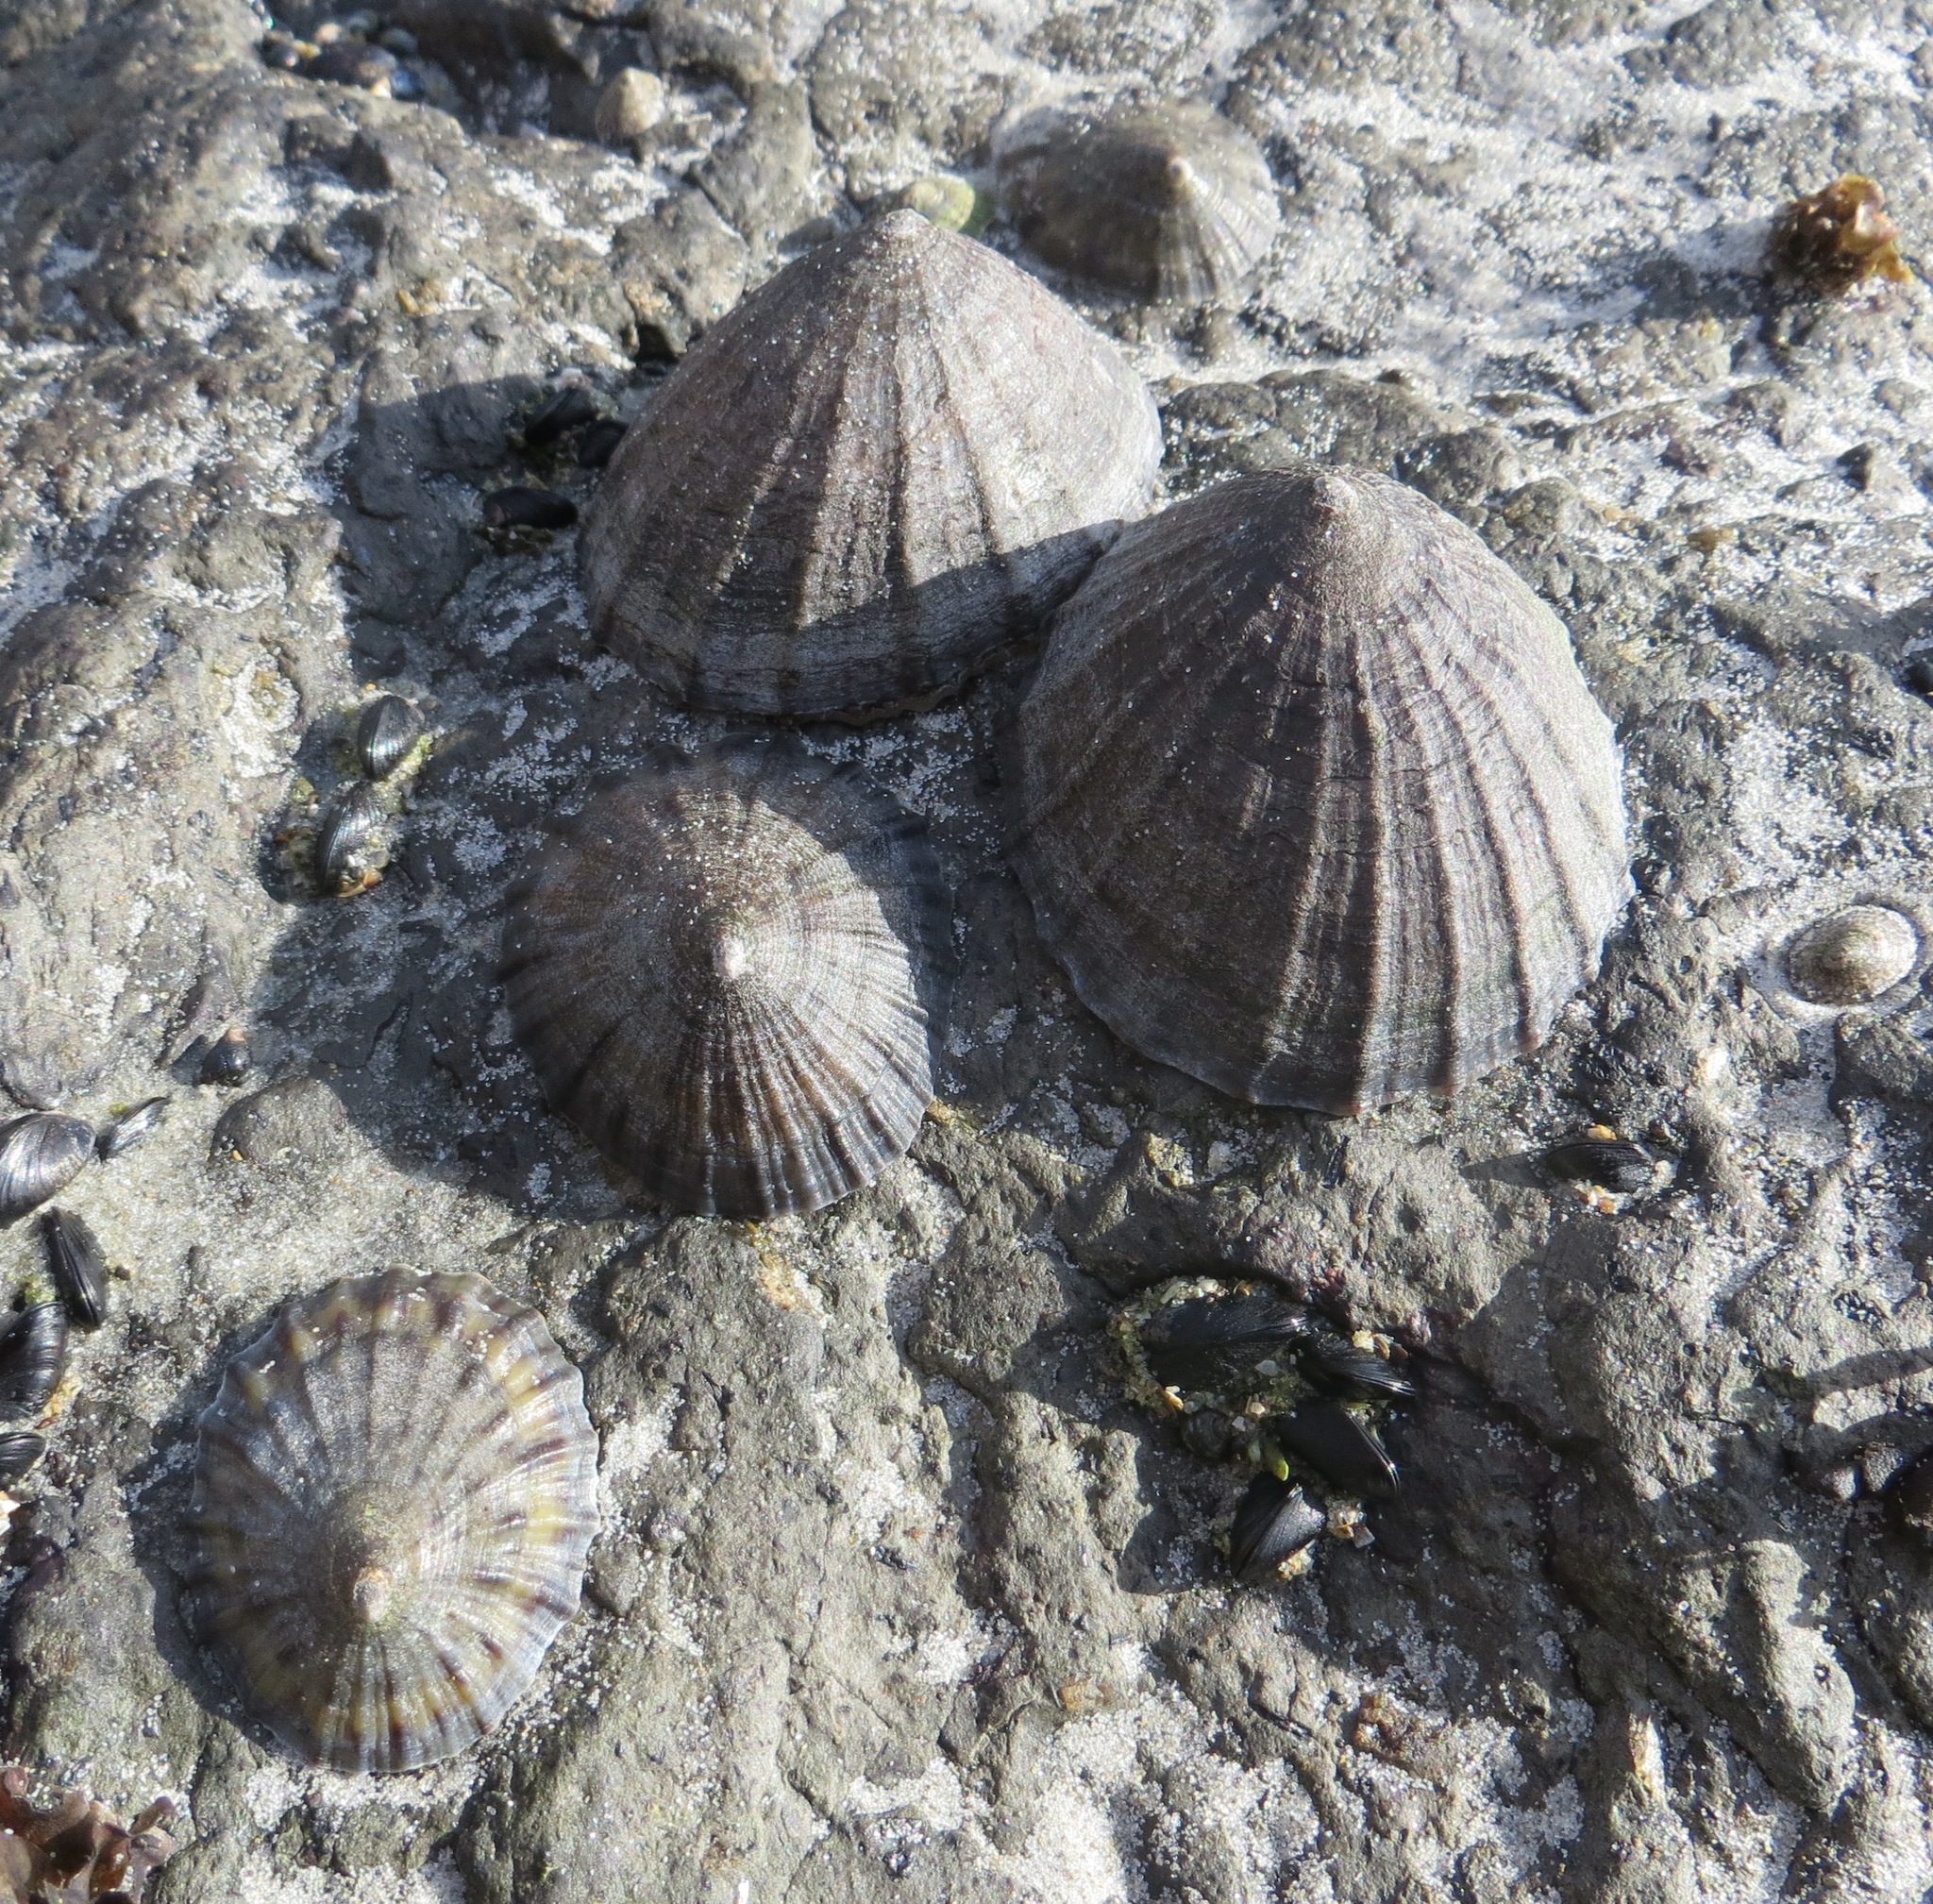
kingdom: Animalia
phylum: Mollusca
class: Gastropoda
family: Nacellidae
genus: Cellana
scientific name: Cellana strigilis
